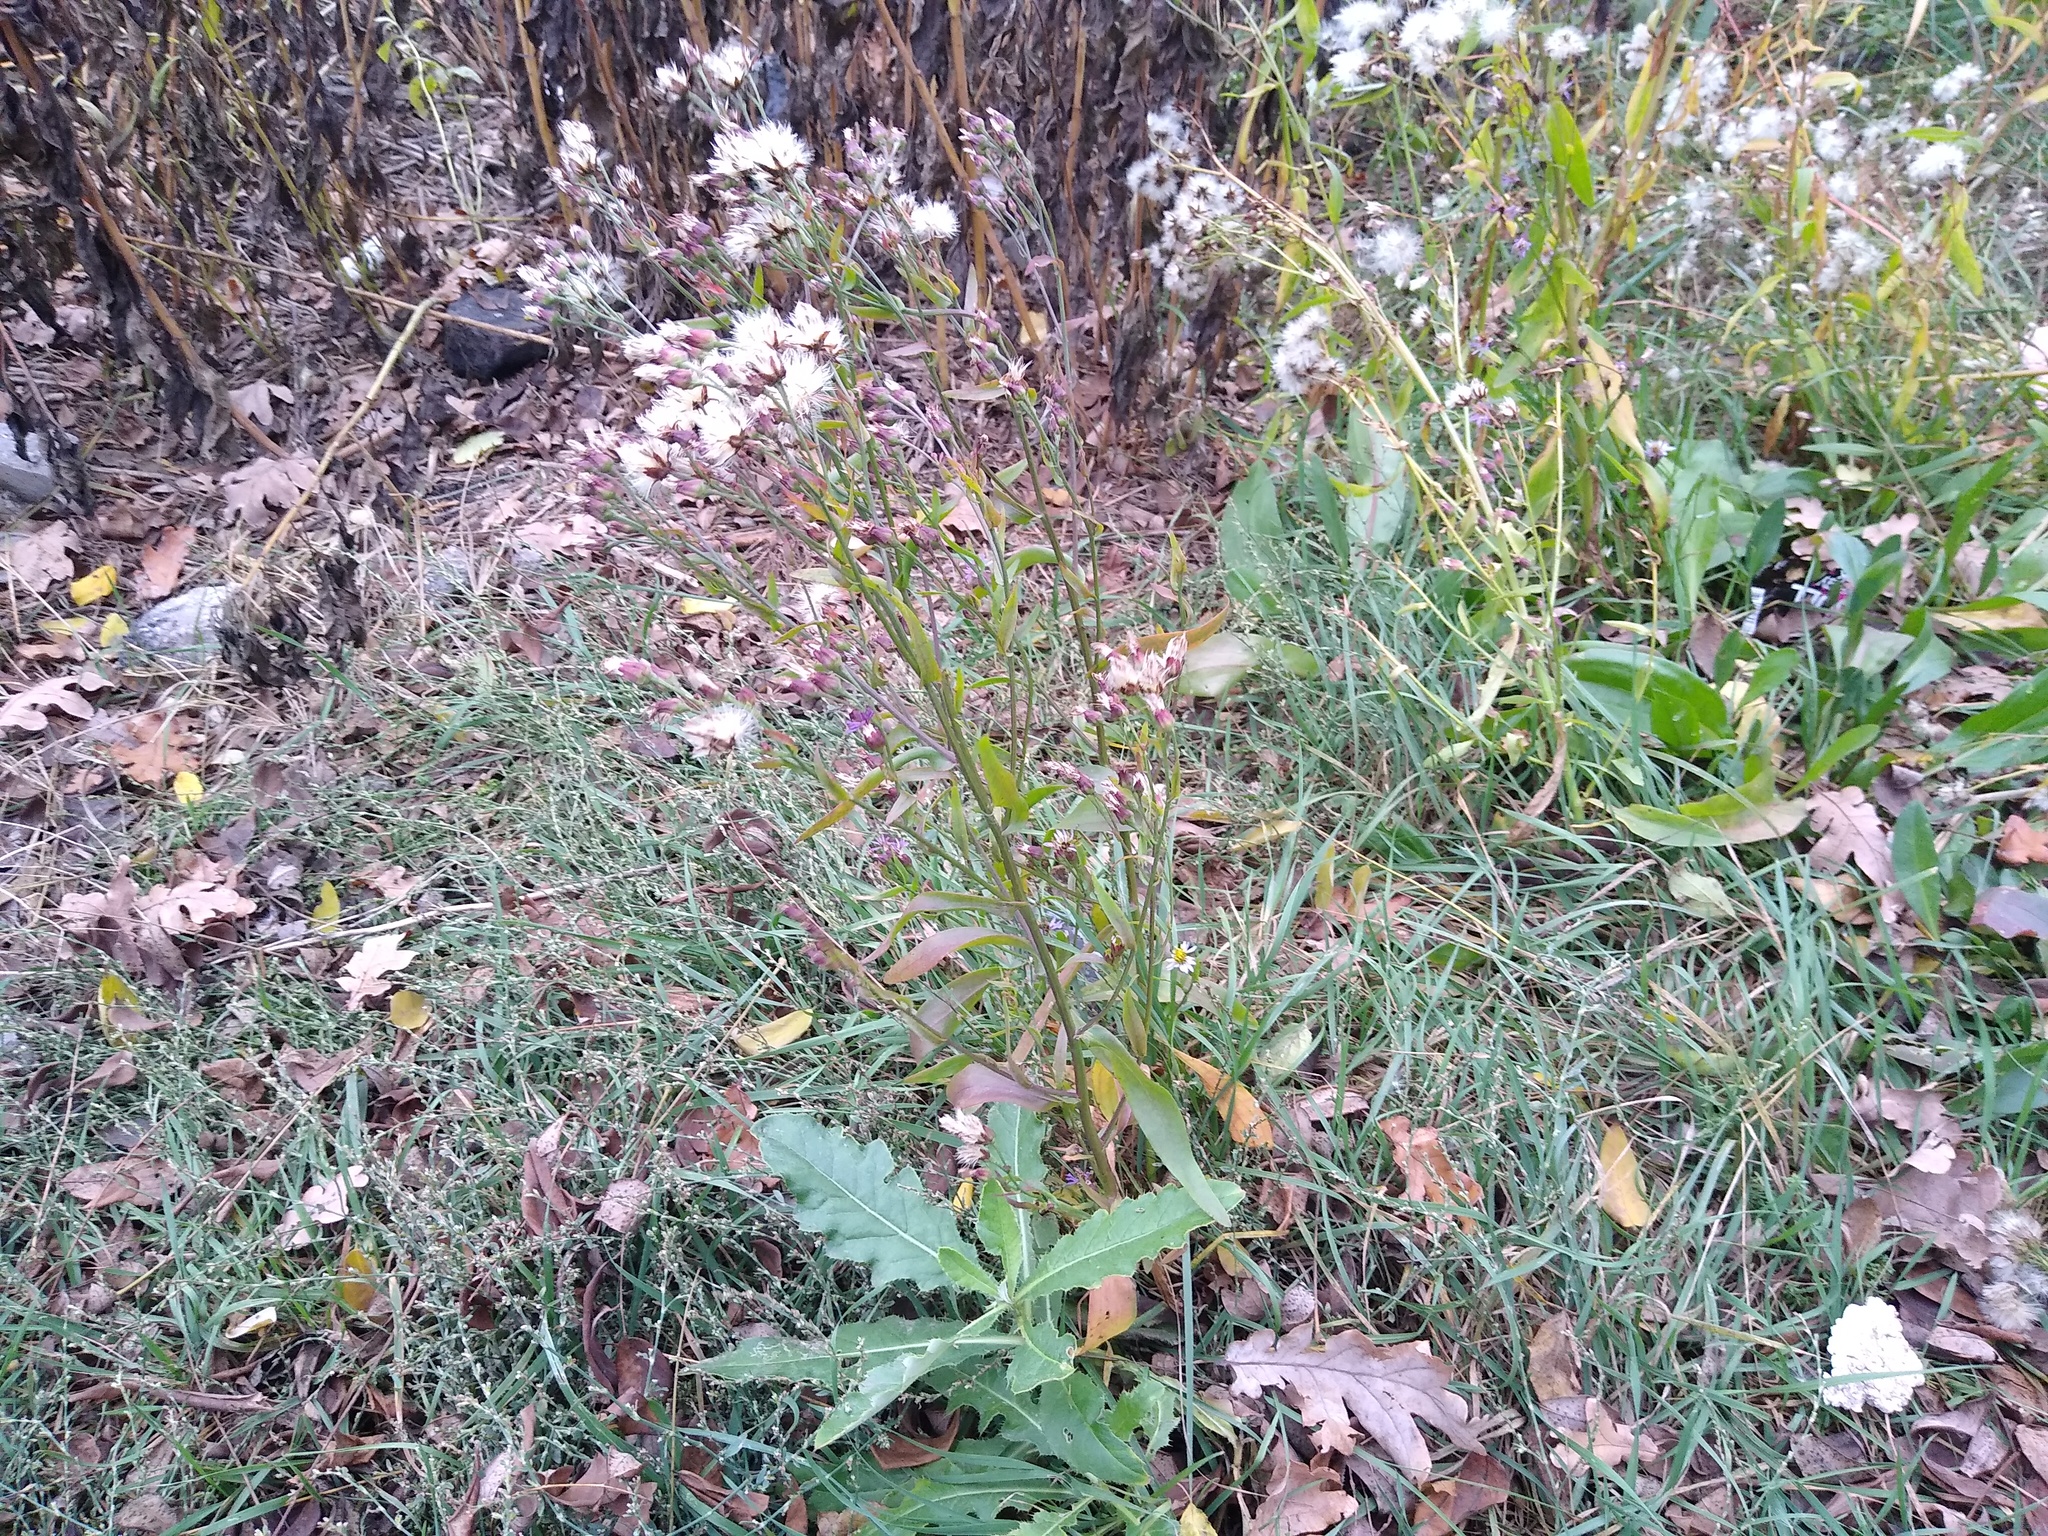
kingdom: Plantae
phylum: Tracheophyta
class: Magnoliopsida
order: Asterales
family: Asteraceae
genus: Tripolium
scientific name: Tripolium pannonicum
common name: Sea aster
